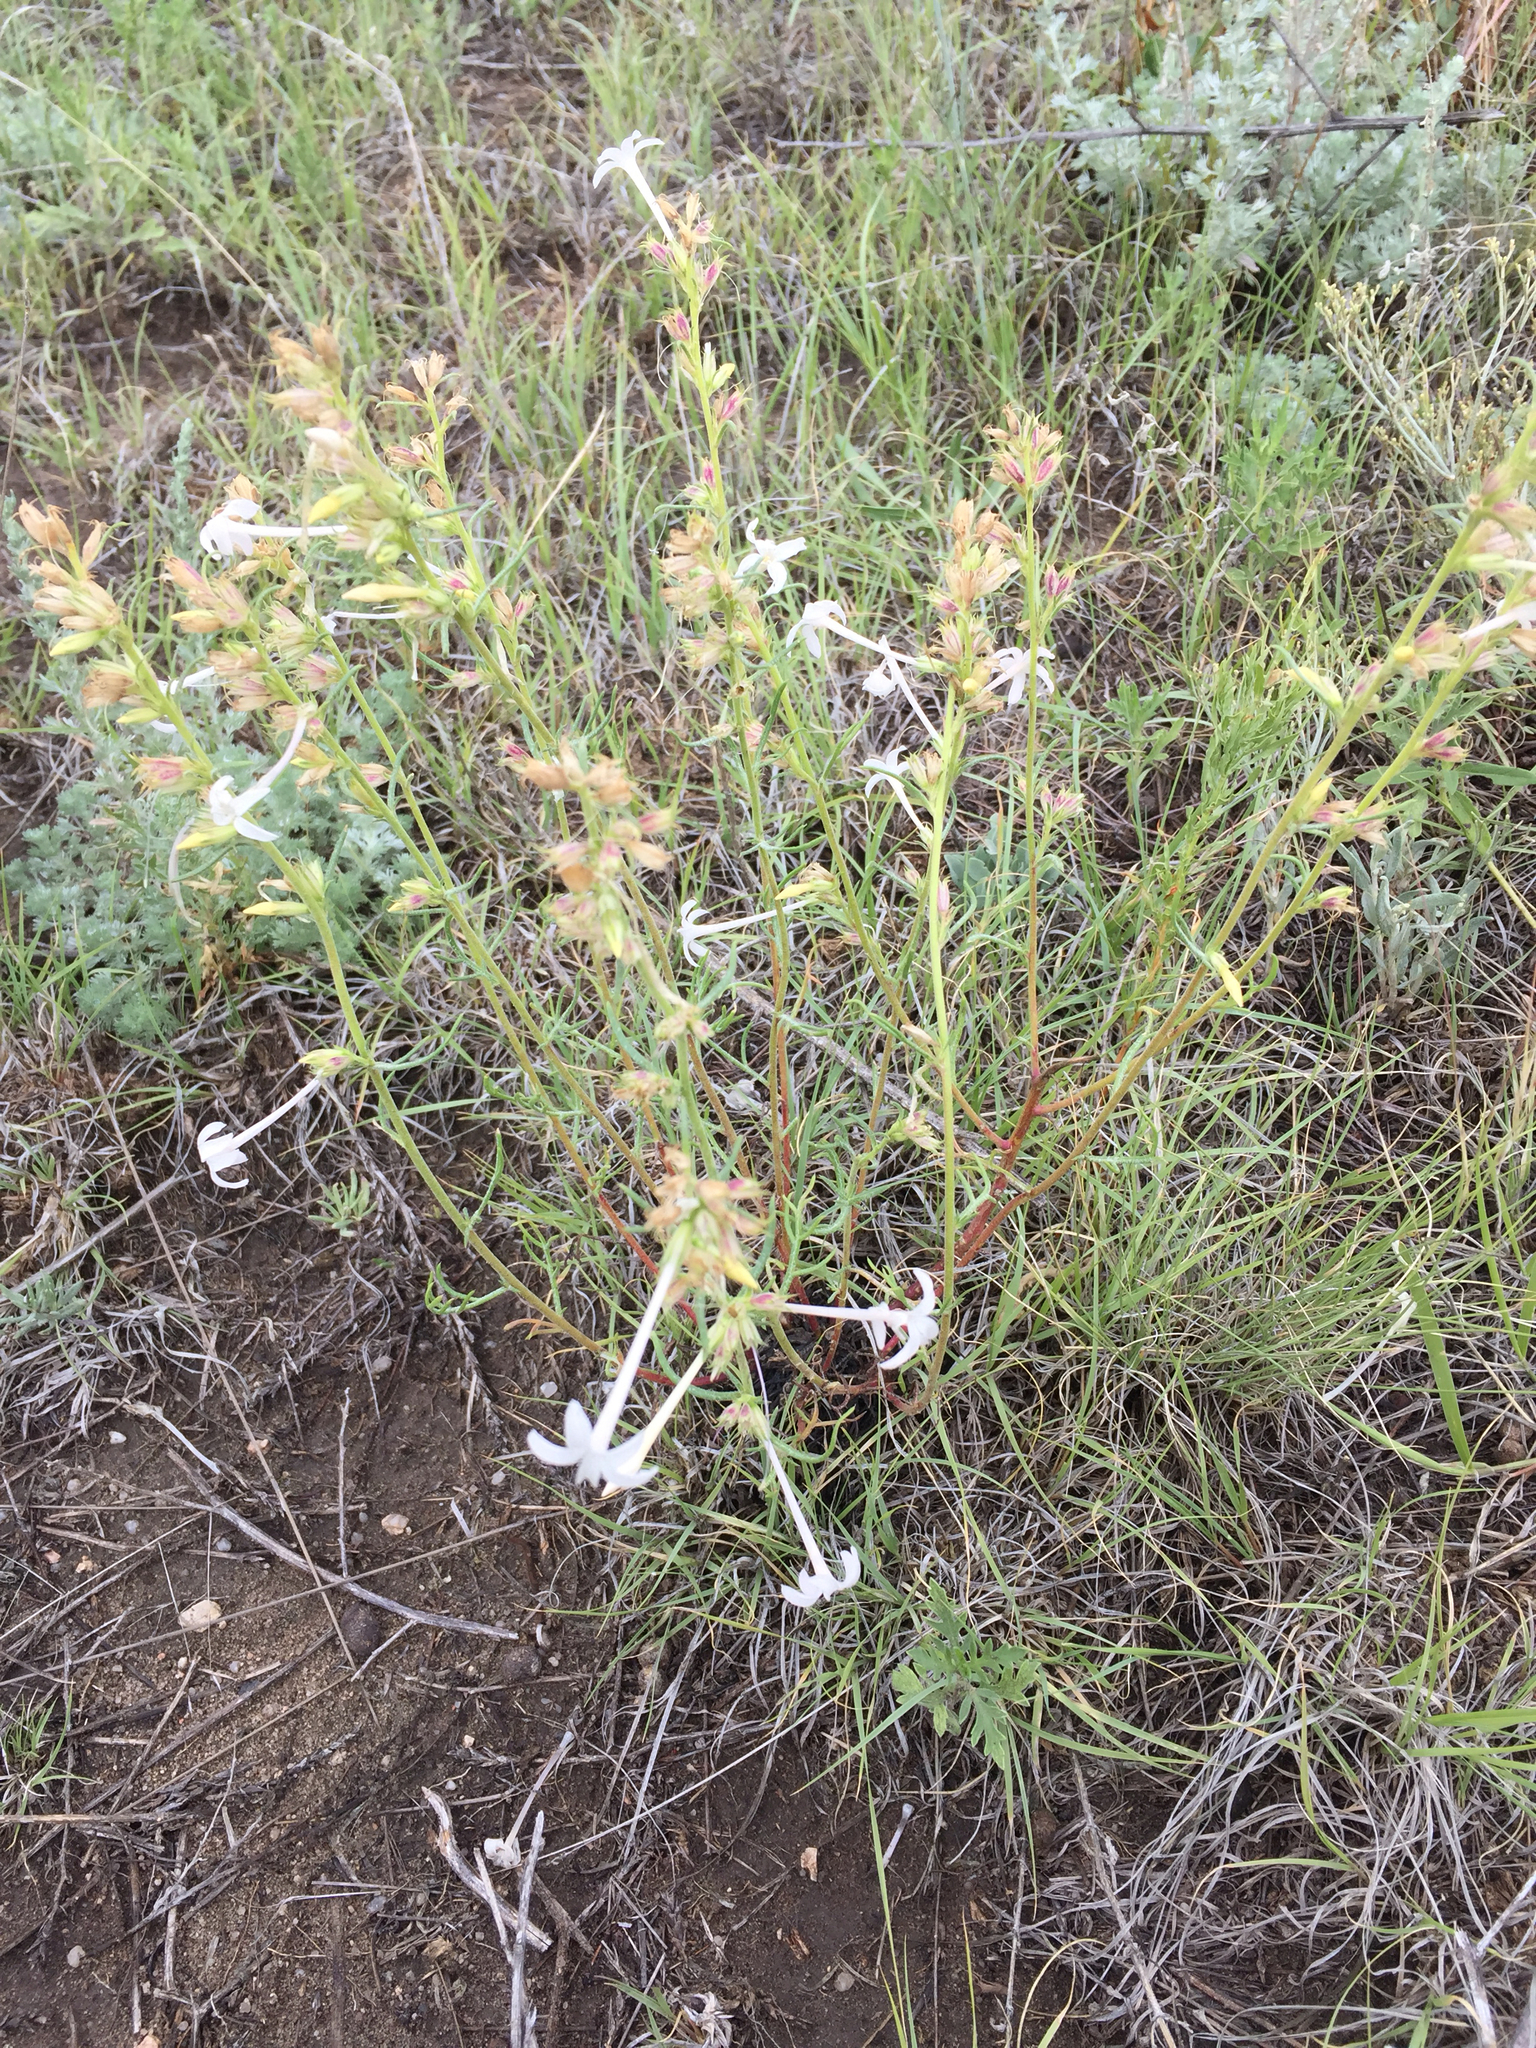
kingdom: Plantae
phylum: Tracheophyta
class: Magnoliopsida
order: Ericales
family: Polemoniaceae
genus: Ipomopsis
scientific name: Ipomopsis aggregata
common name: Scarlet gilia
